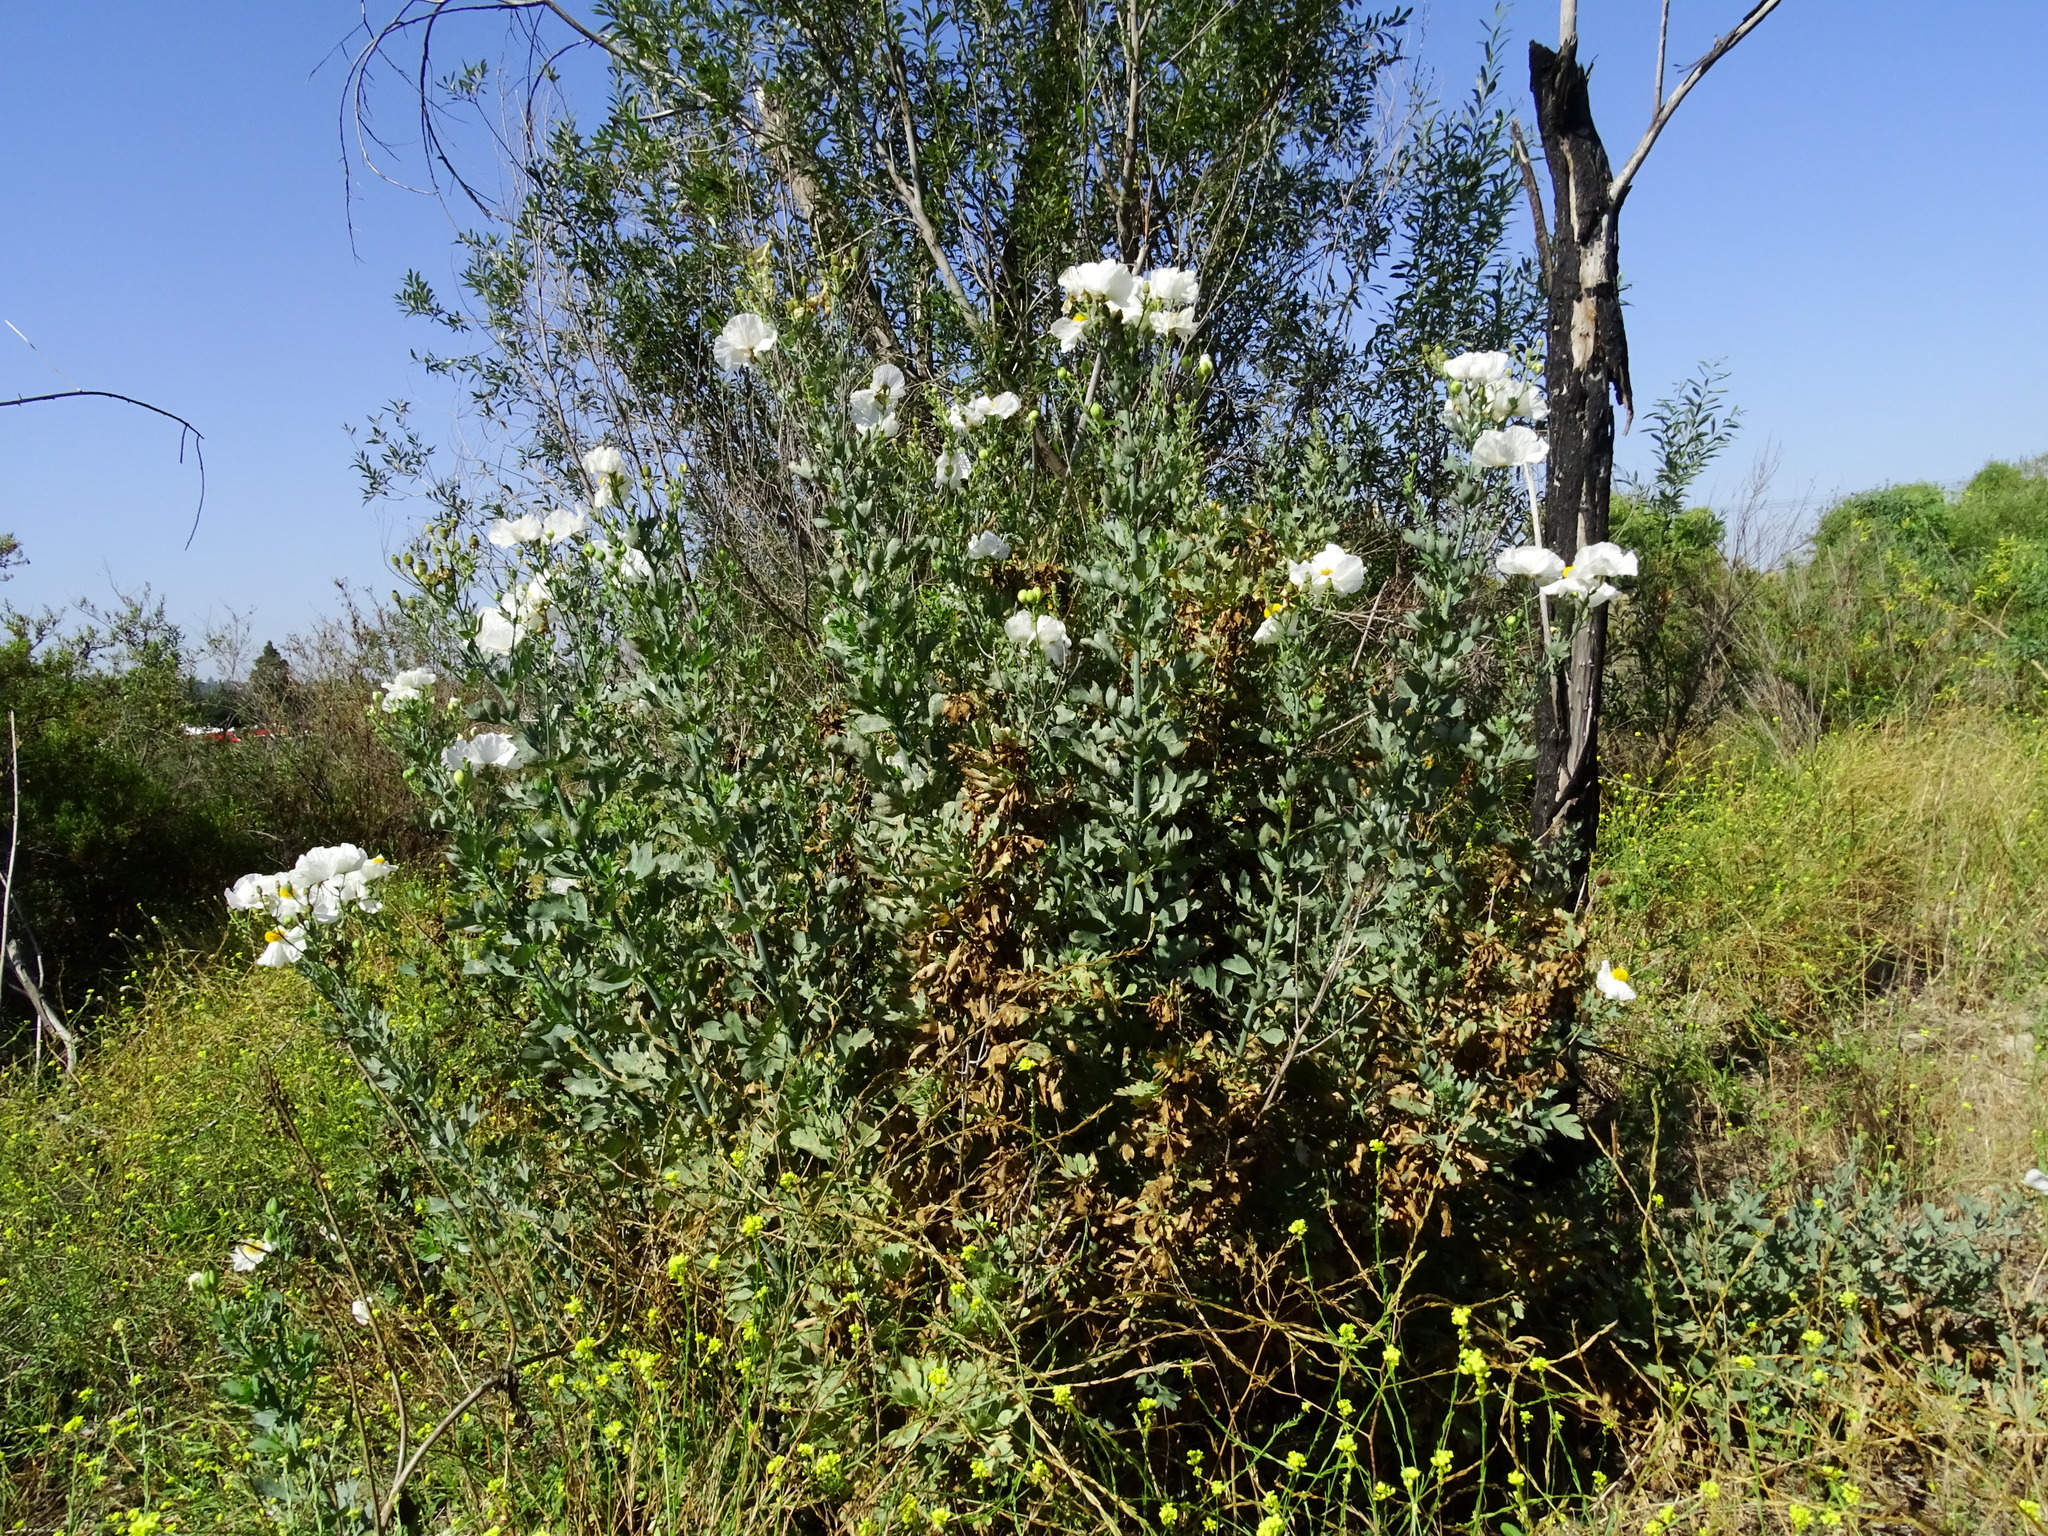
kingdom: Plantae
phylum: Tracheophyta
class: Magnoliopsida
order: Ranunculales
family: Papaveraceae
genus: Romneya
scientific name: Romneya coulteri
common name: California tree-poppy
